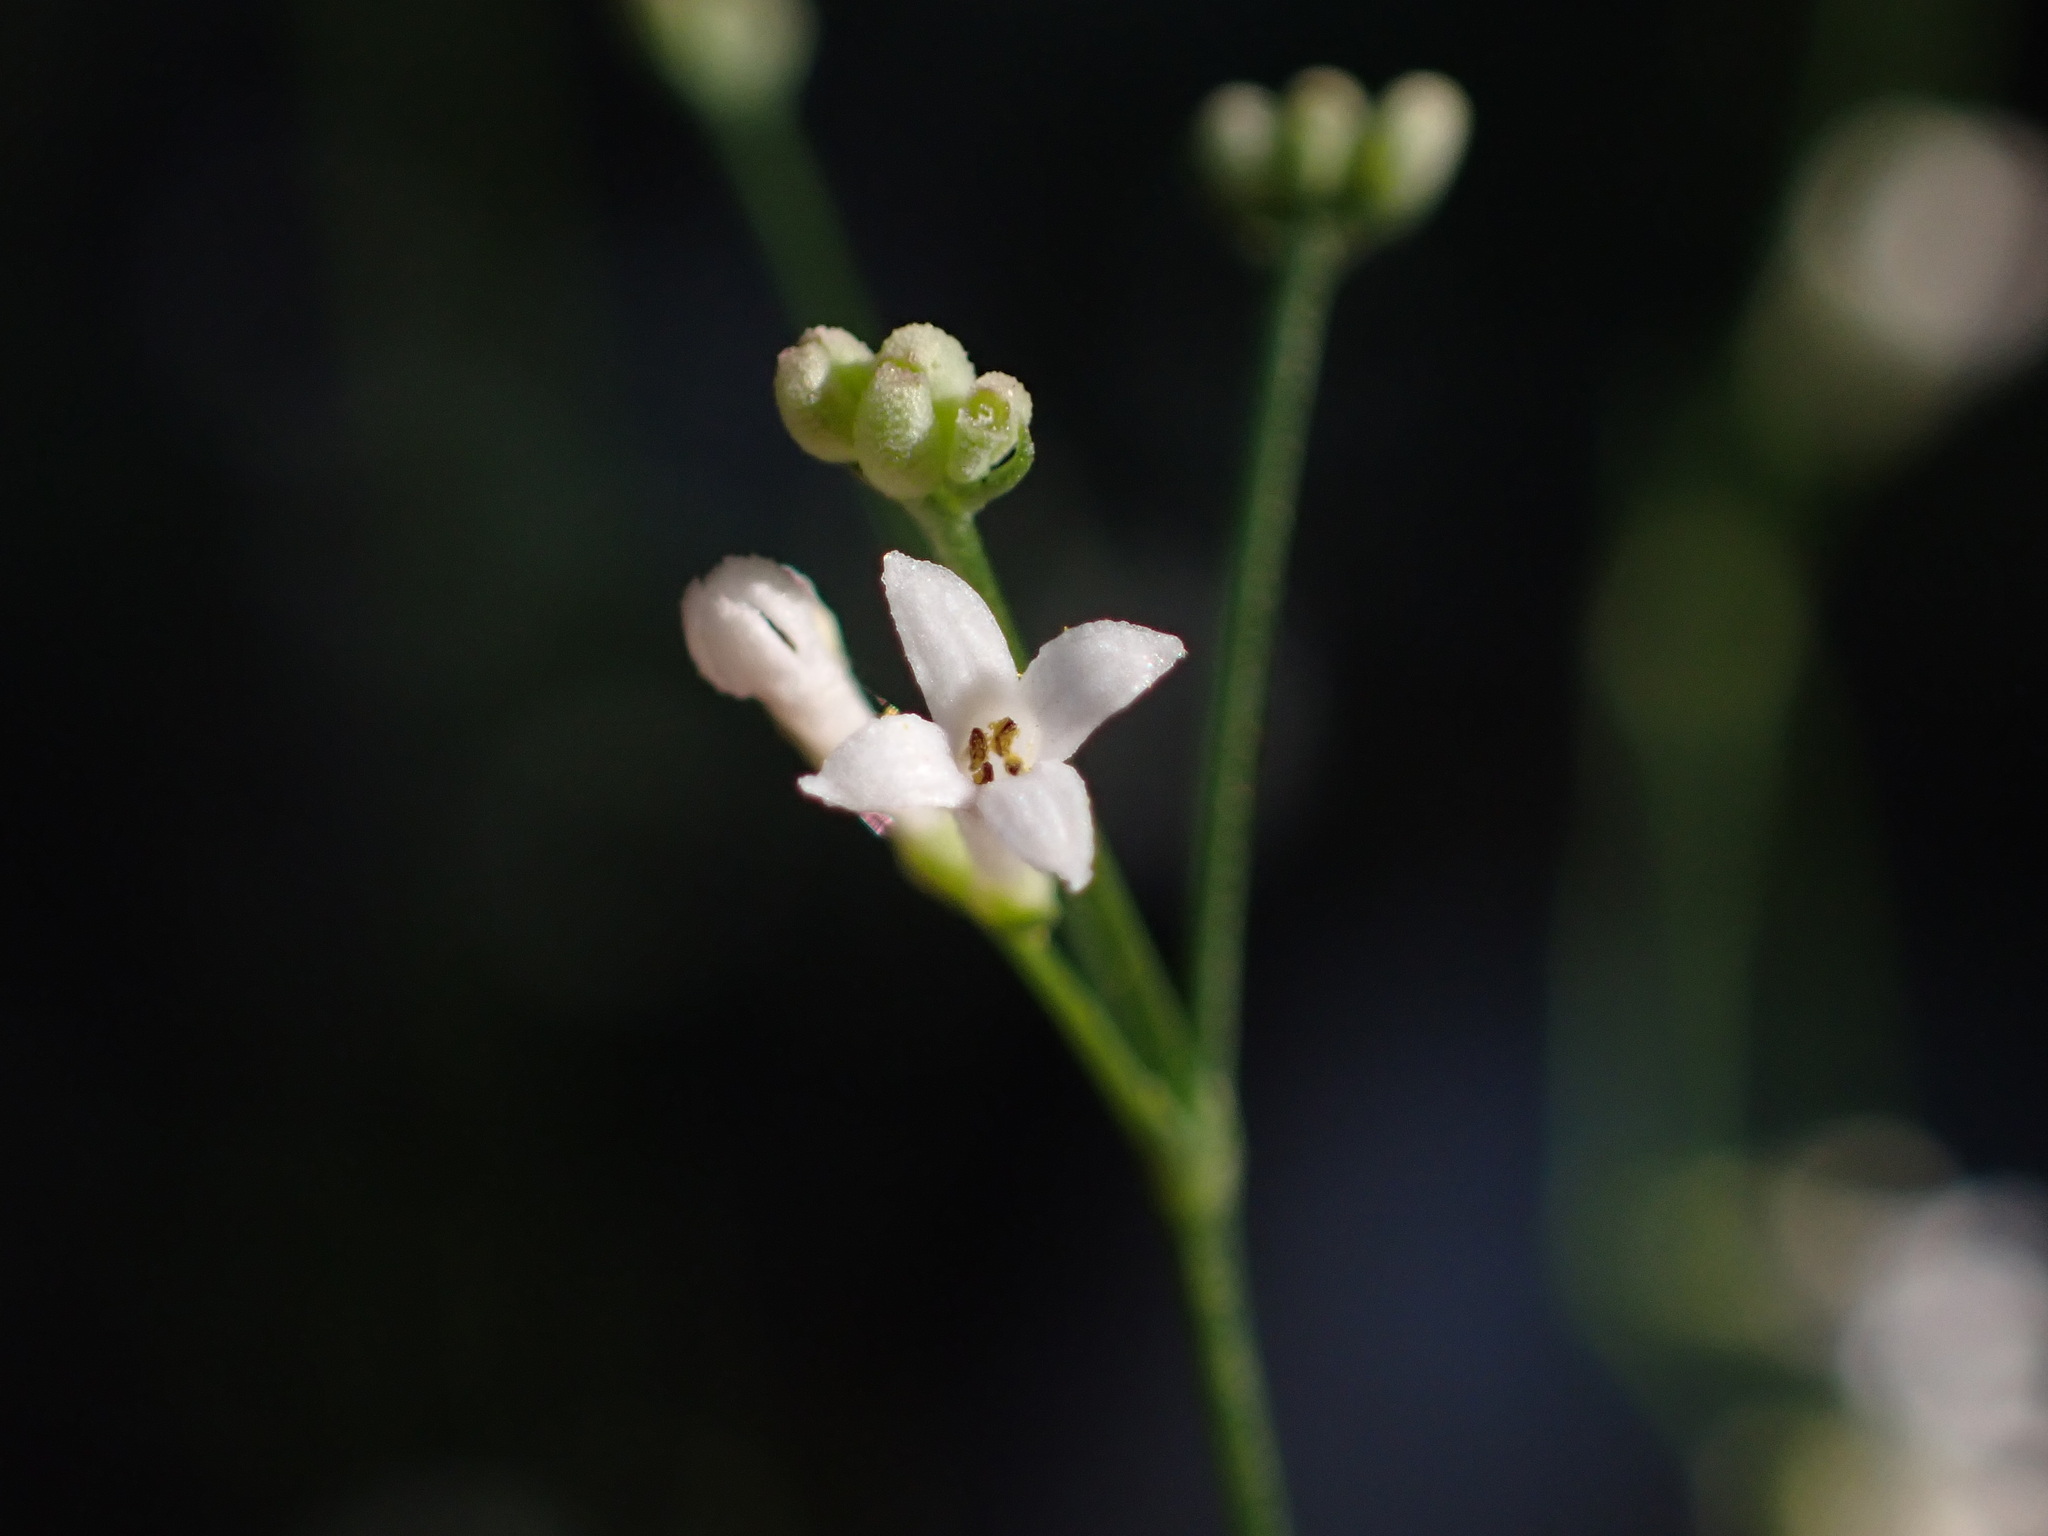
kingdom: Plantae
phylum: Tracheophyta
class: Magnoliopsida
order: Gentianales
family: Rubiaceae
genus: Cynanchica
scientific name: Cynanchica pyrenaica
